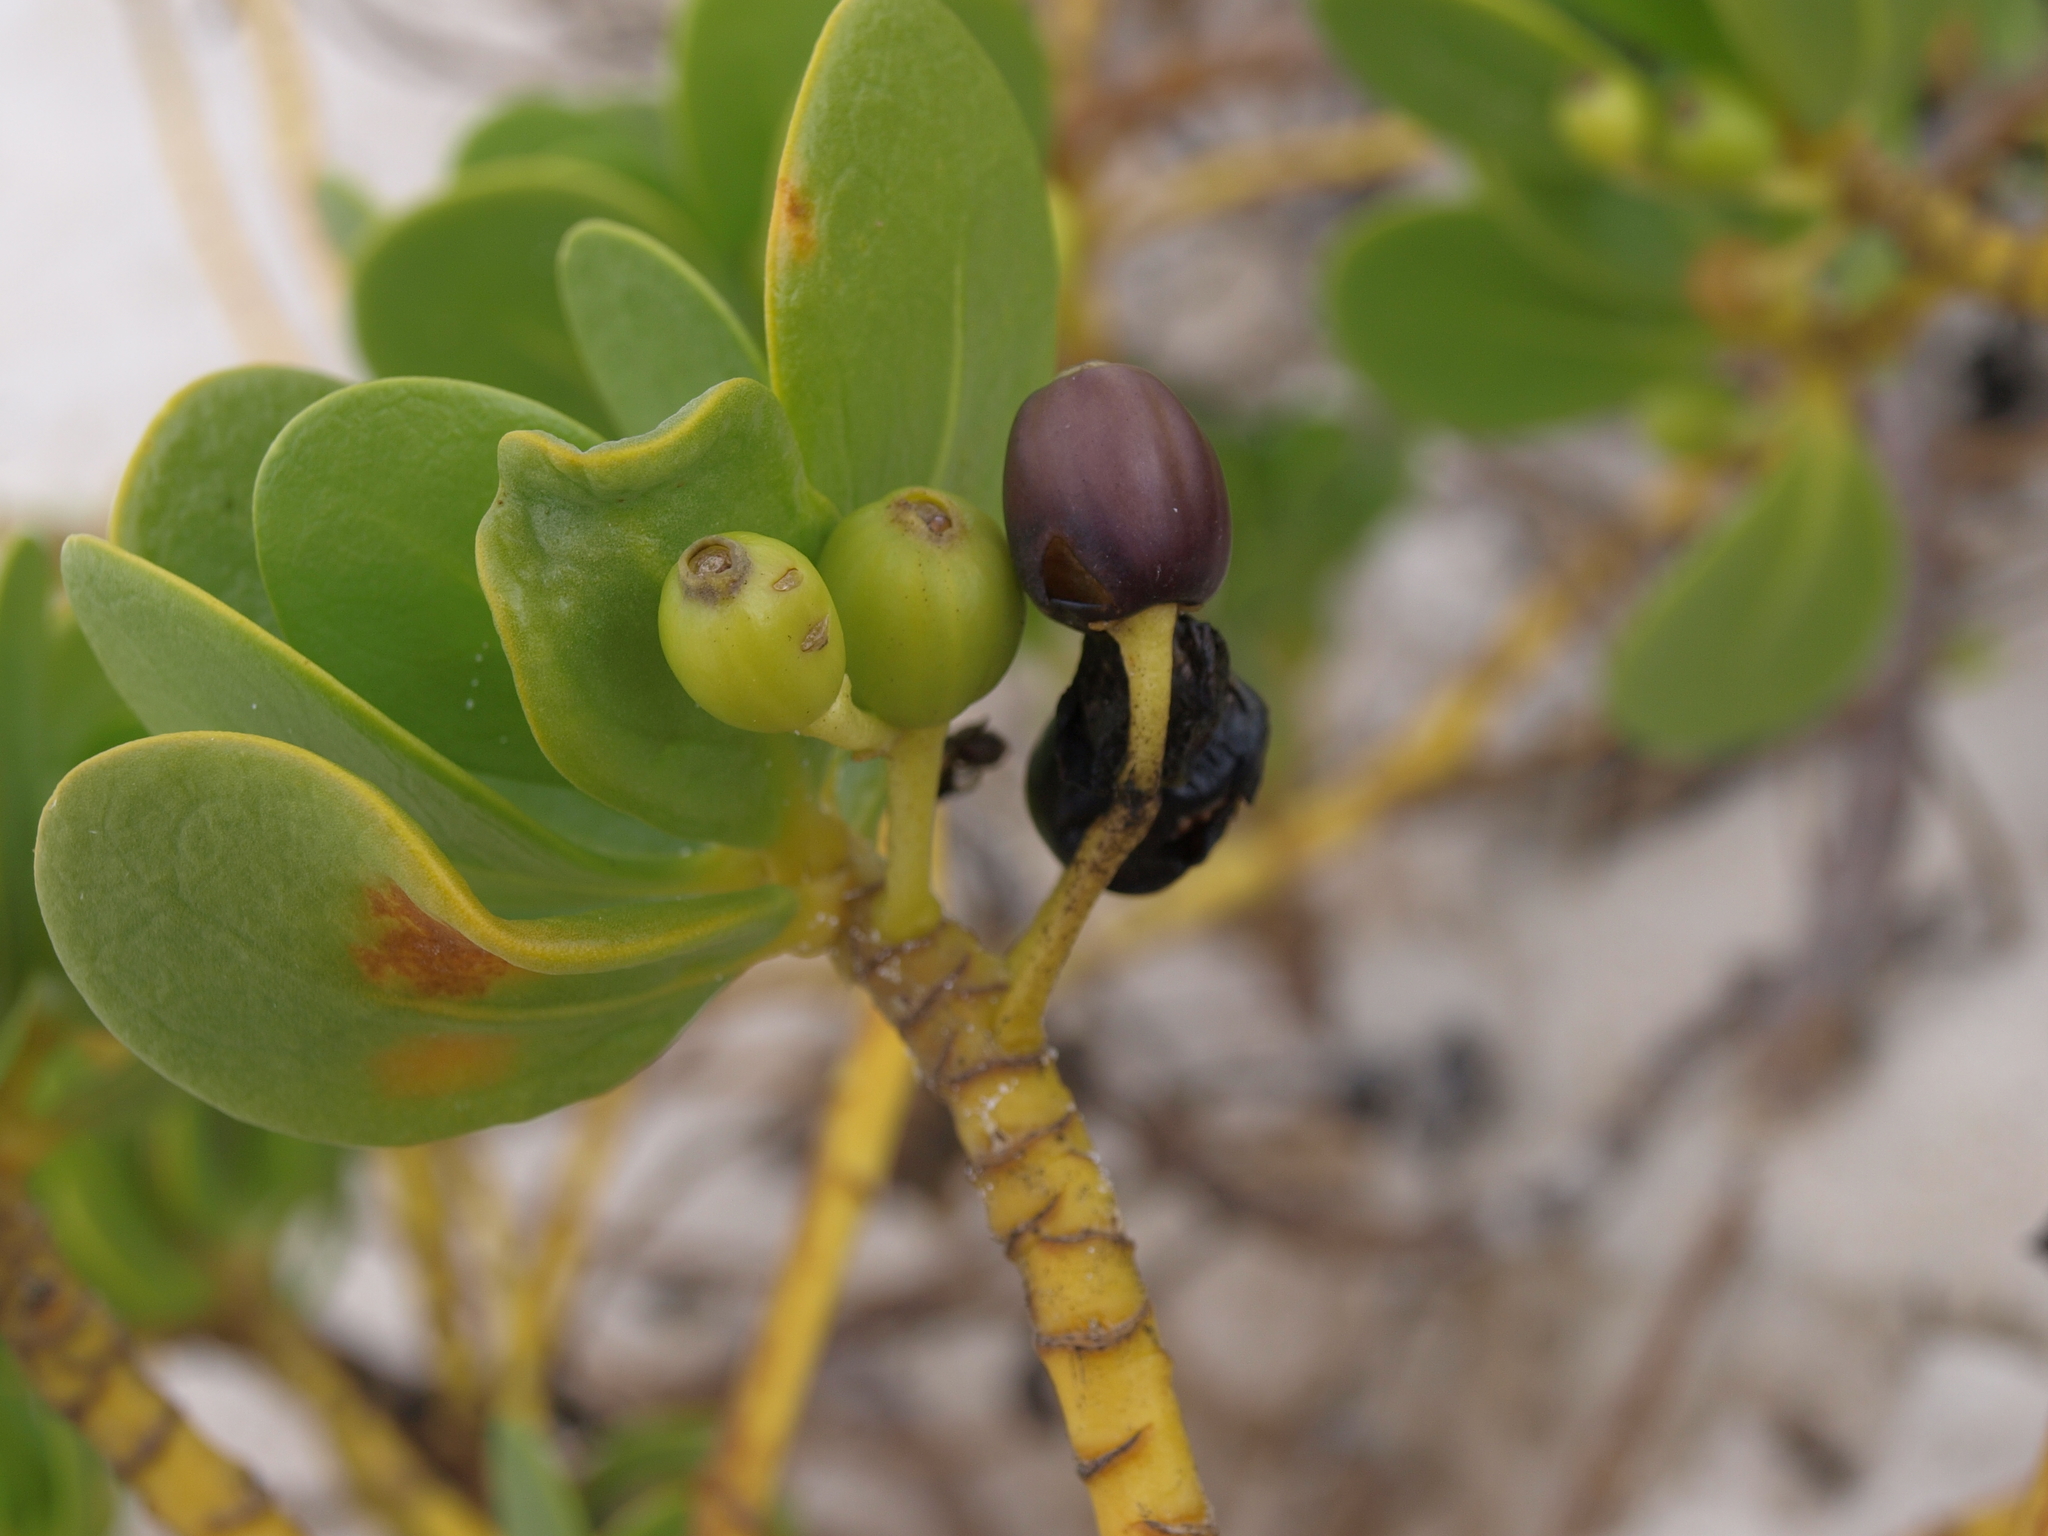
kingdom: Plantae
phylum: Tracheophyta
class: Magnoliopsida
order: Asterales
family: Goodeniaceae
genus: Scaevola
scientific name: Scaevola plumieri
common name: Gull feed
